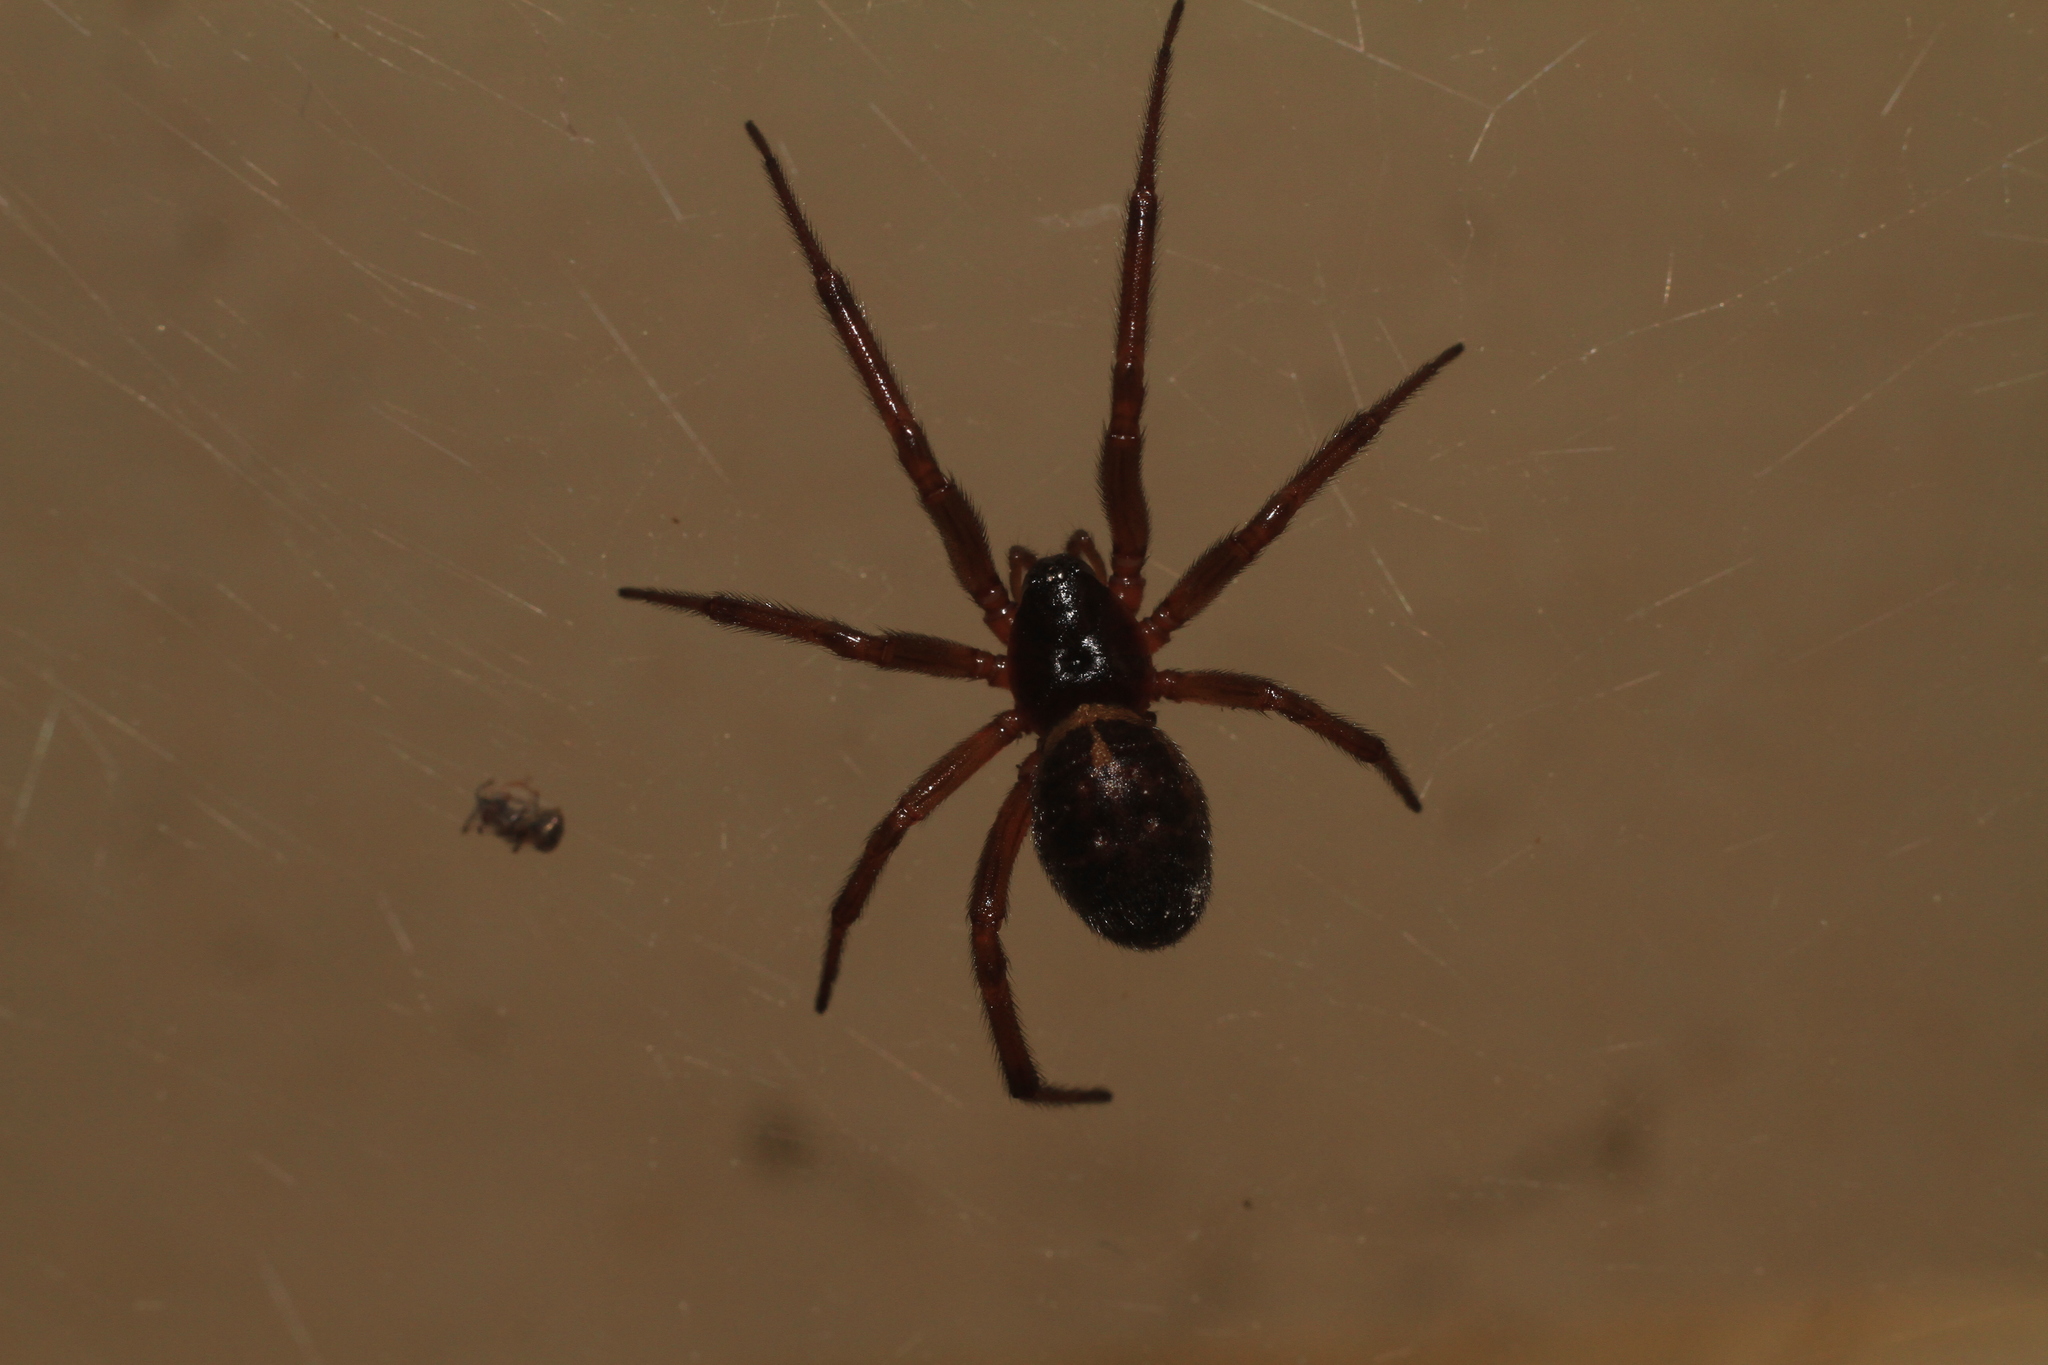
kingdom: Animalia
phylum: Arthropoda
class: Arachnida
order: Araneae
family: Theridiidae
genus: Steatoda
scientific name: Steatoda nobilis
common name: Cobweb weaver
